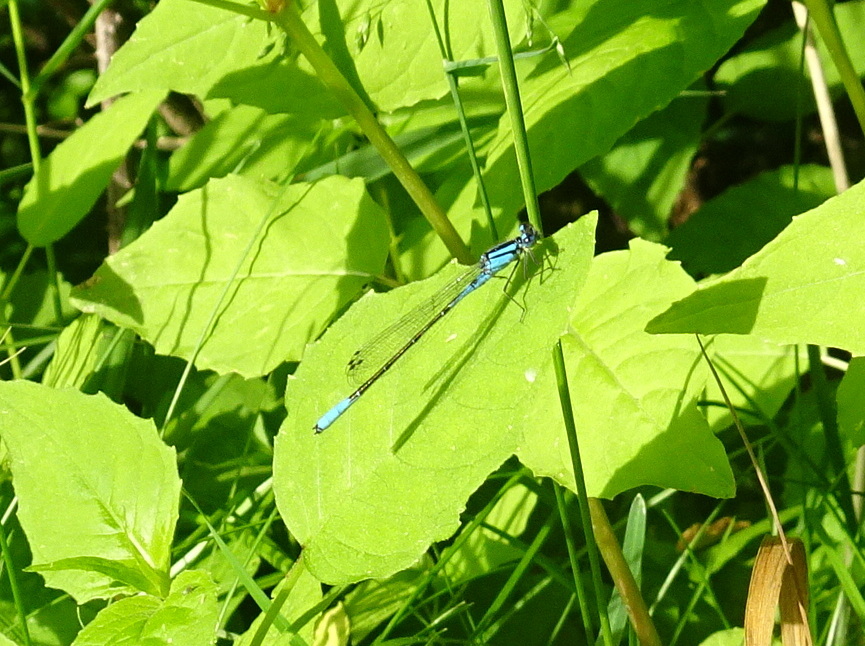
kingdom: Animalia
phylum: Arthropoda
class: Insecta
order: Odonata
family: Coenagrionidae
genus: Enallagma
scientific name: Enallagma aspersum
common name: Azure bluet
